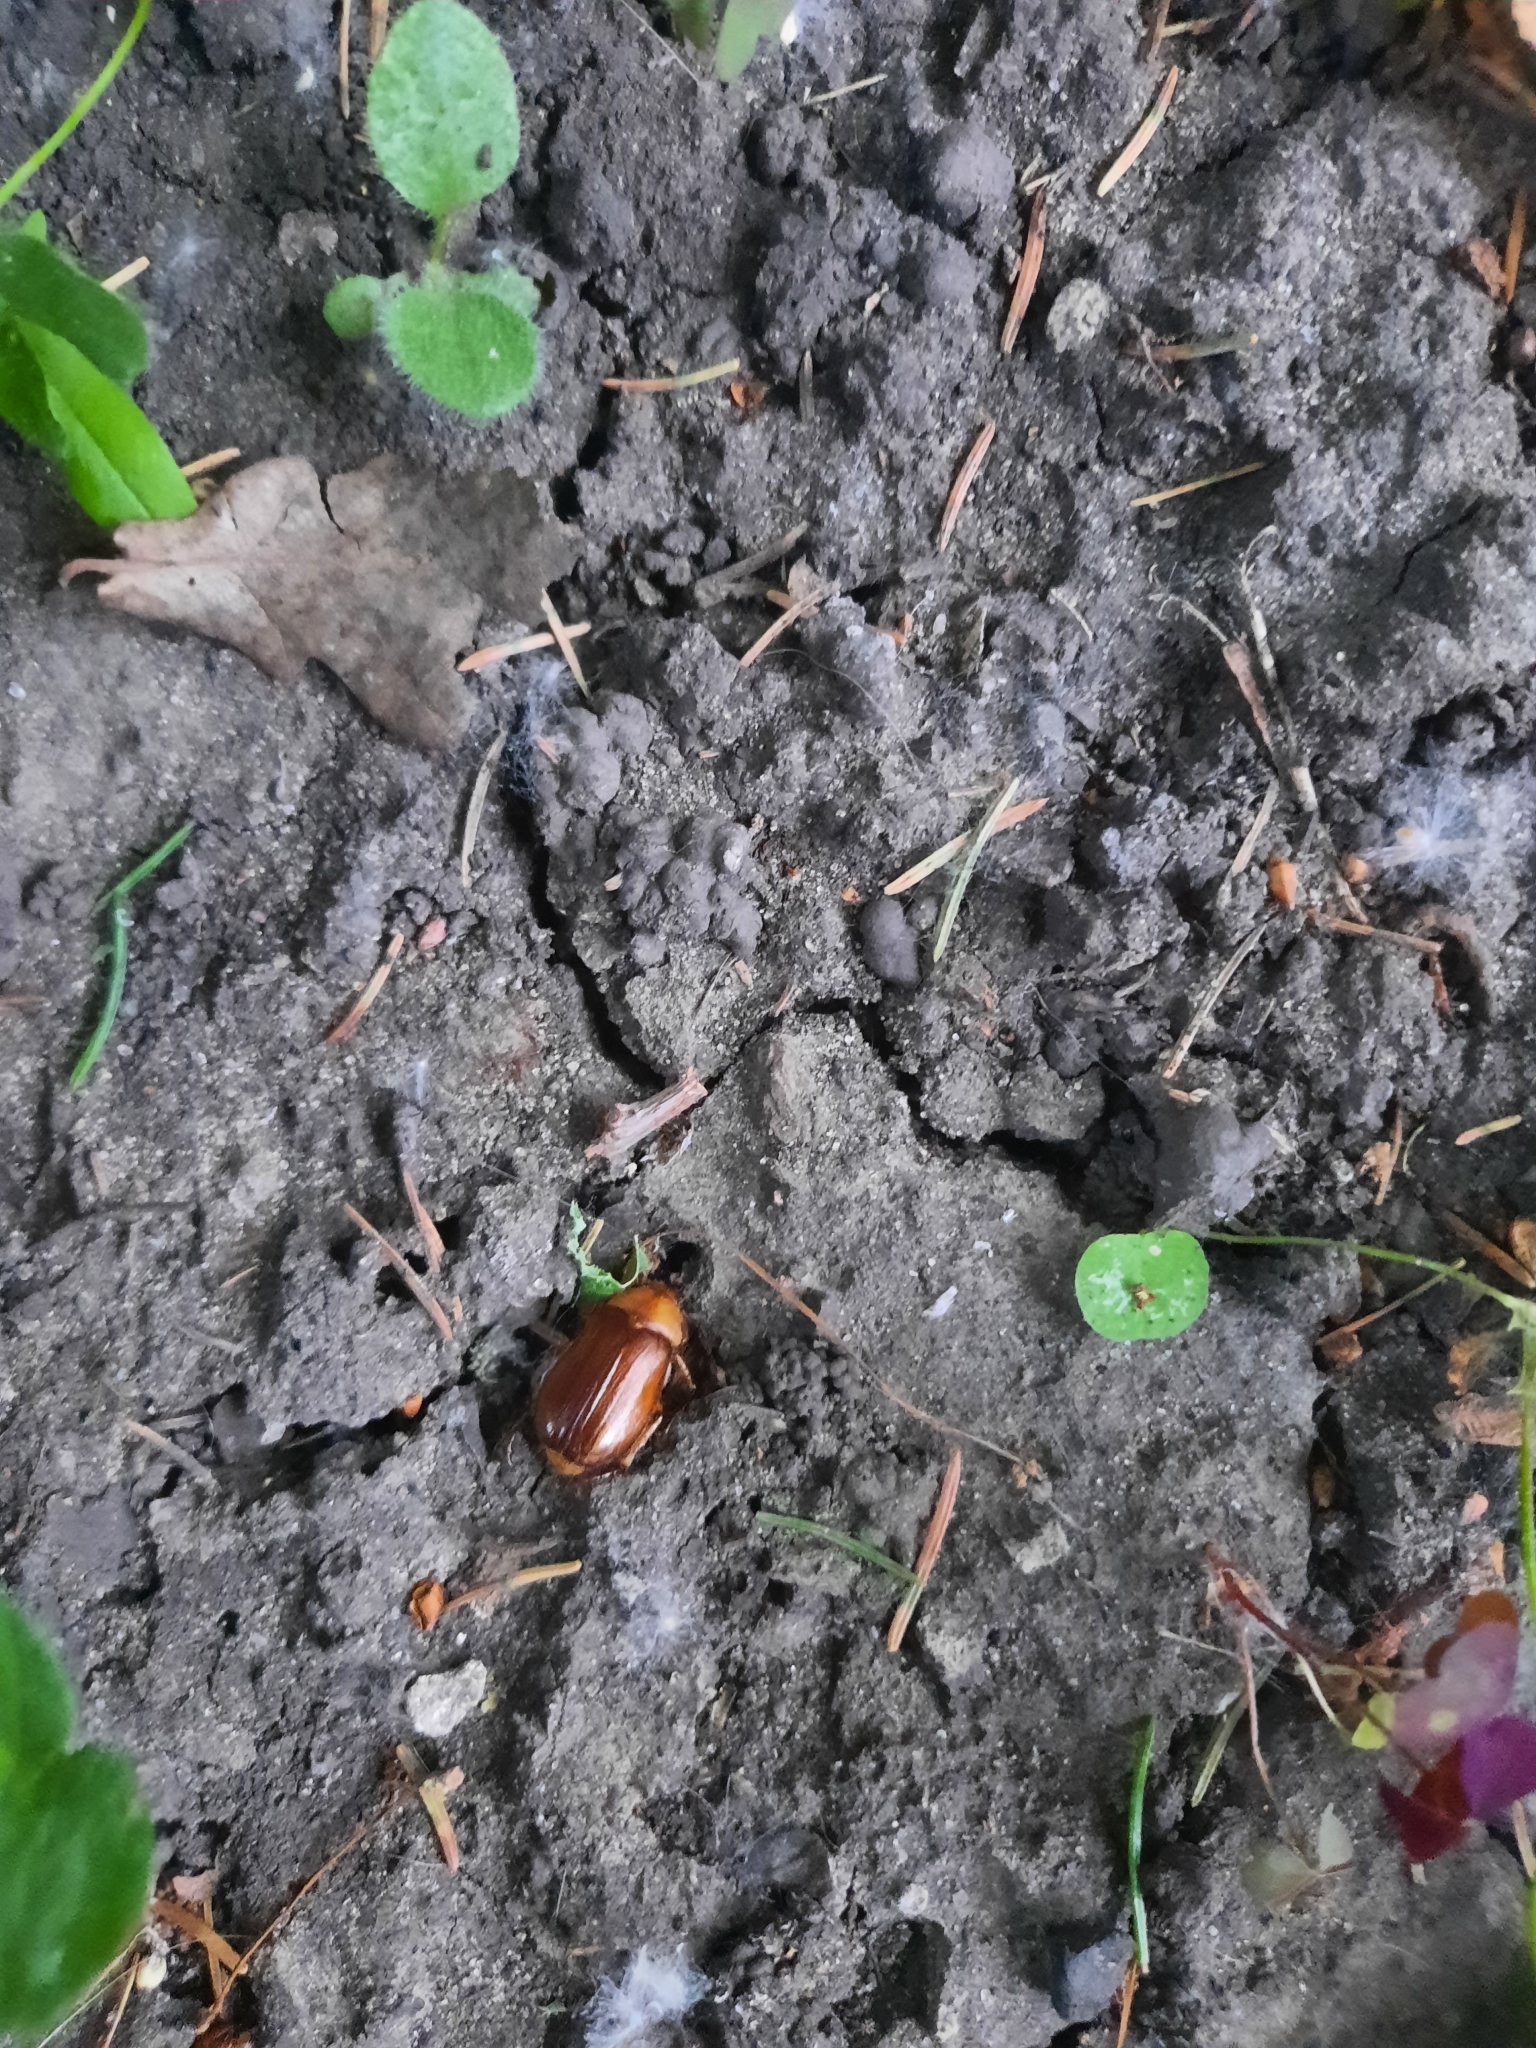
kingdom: Animalia
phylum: Arthropoda
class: Insecta
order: Coleoptera
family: Scarabaeidae
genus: Rhizotrogus
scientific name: Rhizotrogus aestivus
